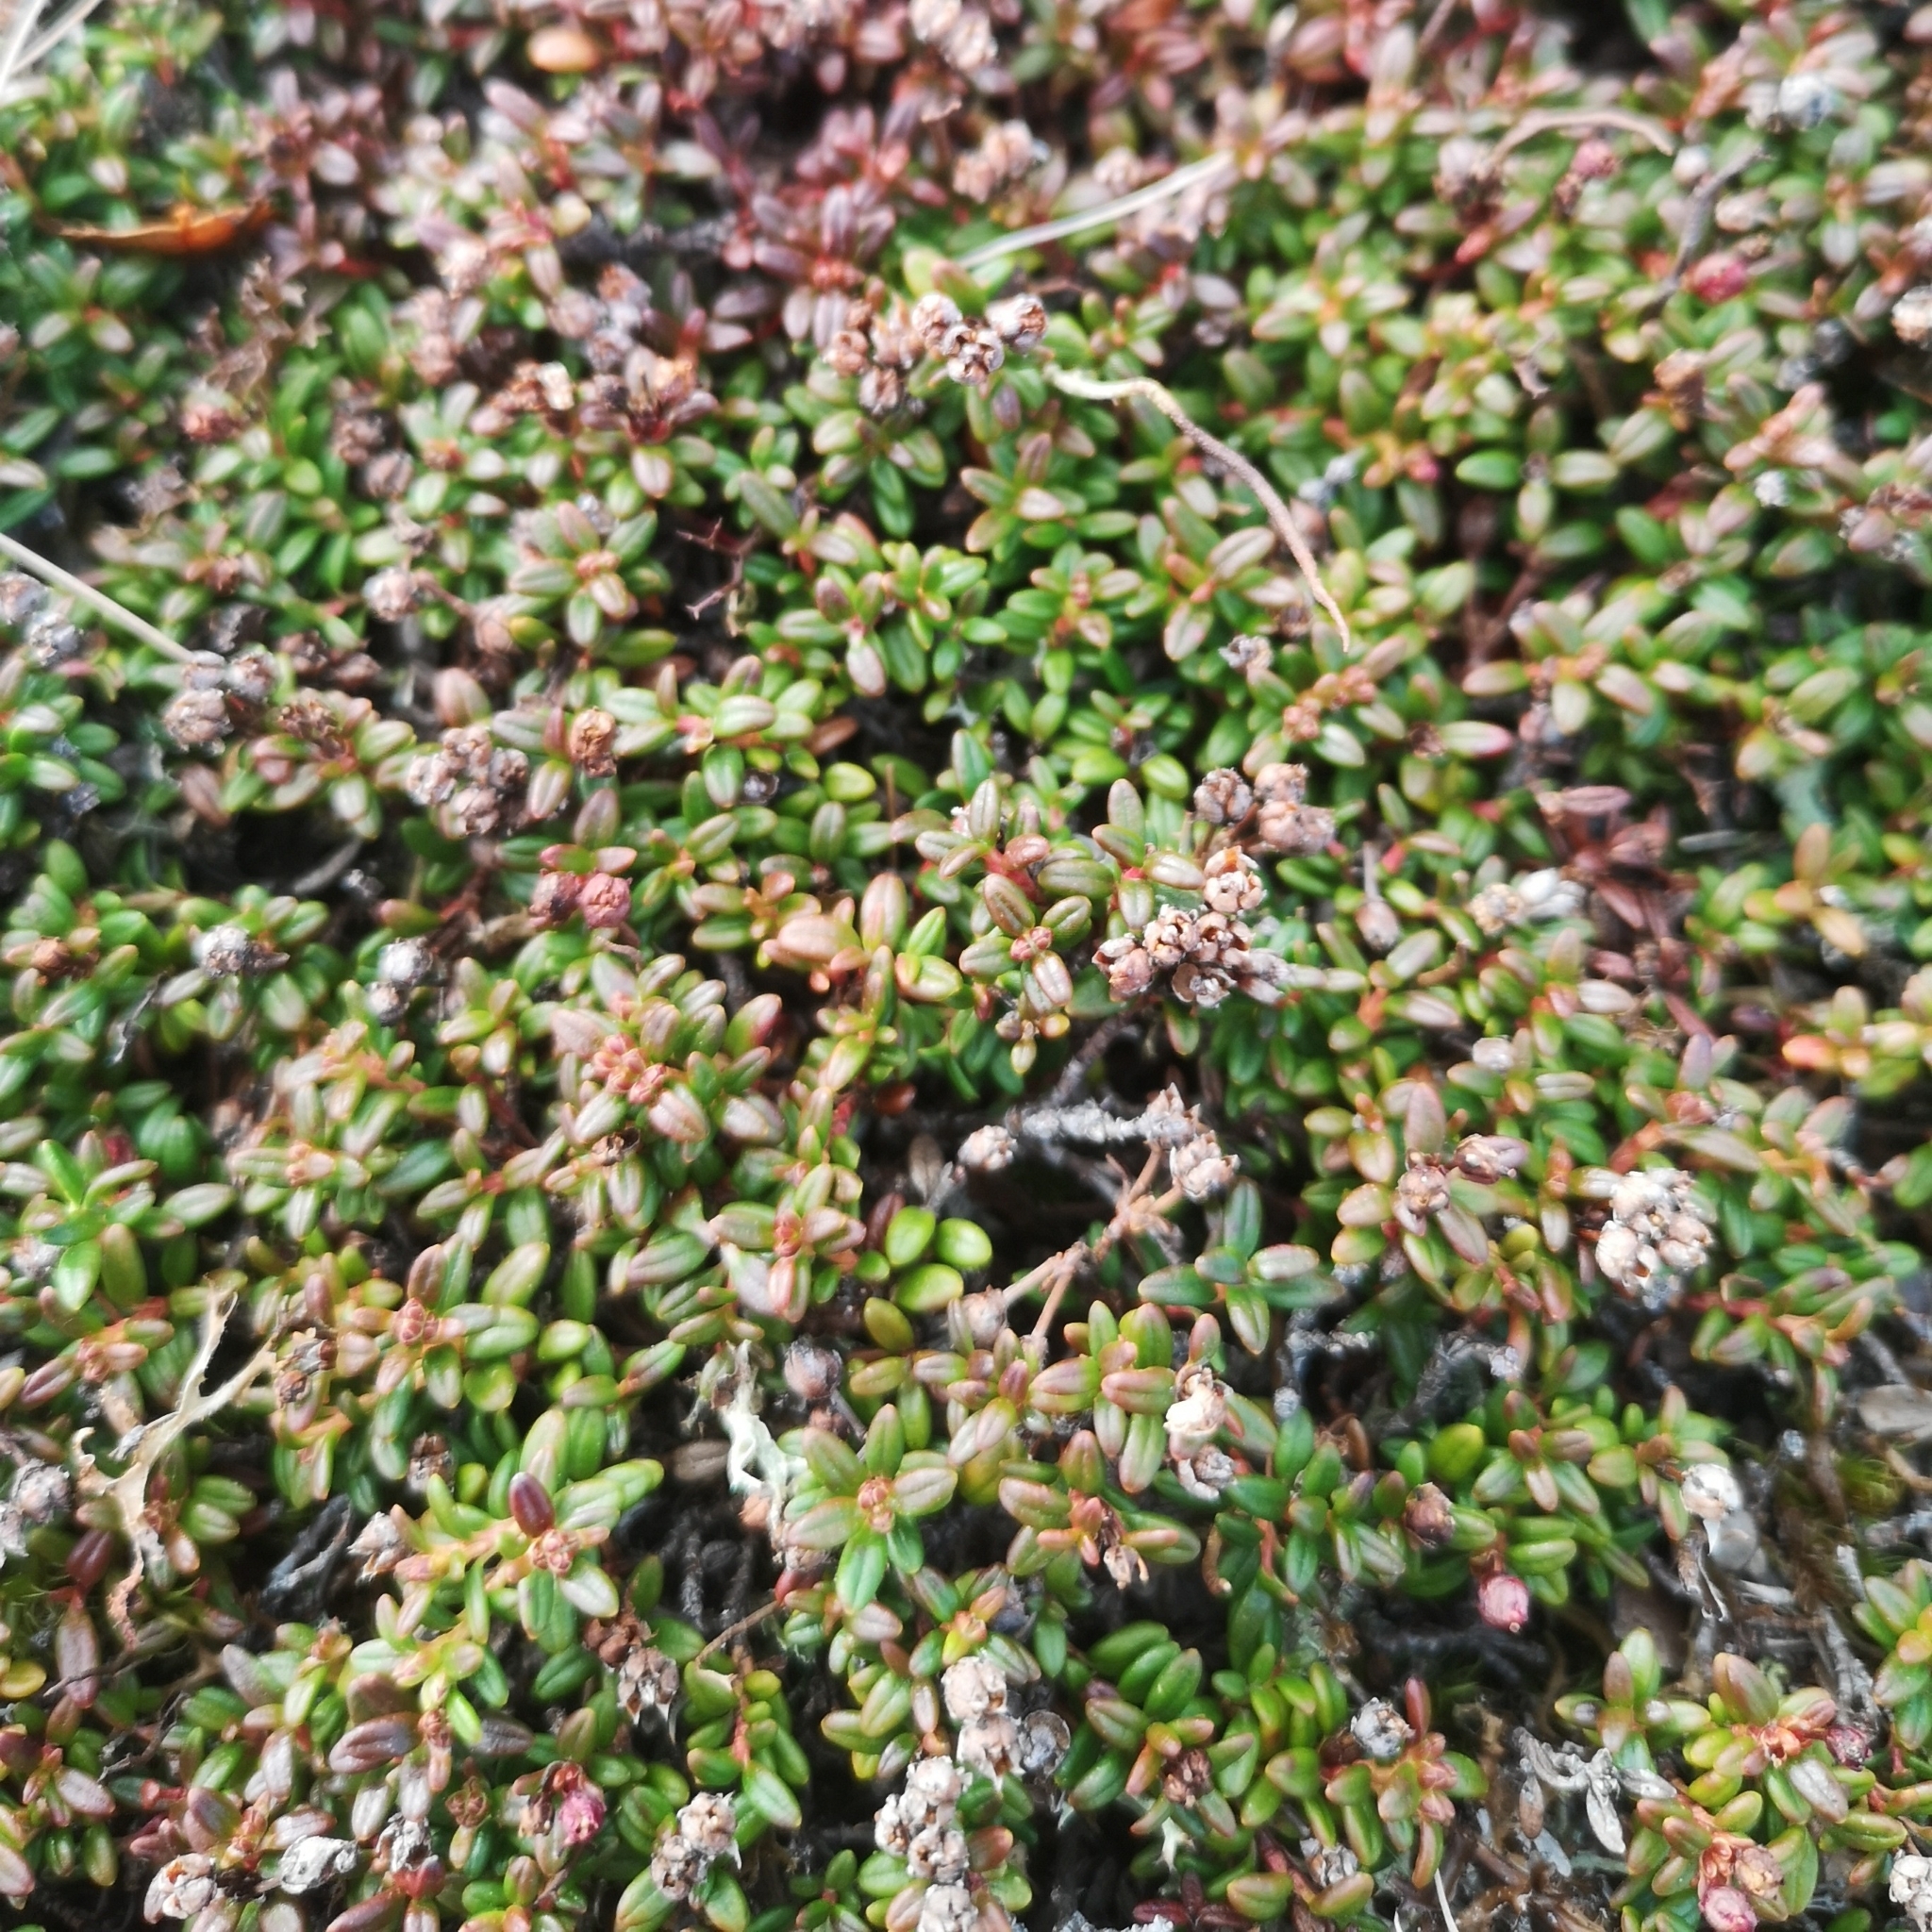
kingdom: Plantae
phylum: Tracheophyta
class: Magnoliopsida
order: Ericales
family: Ericaceae
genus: Kalmia
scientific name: Kalmia procumbens
